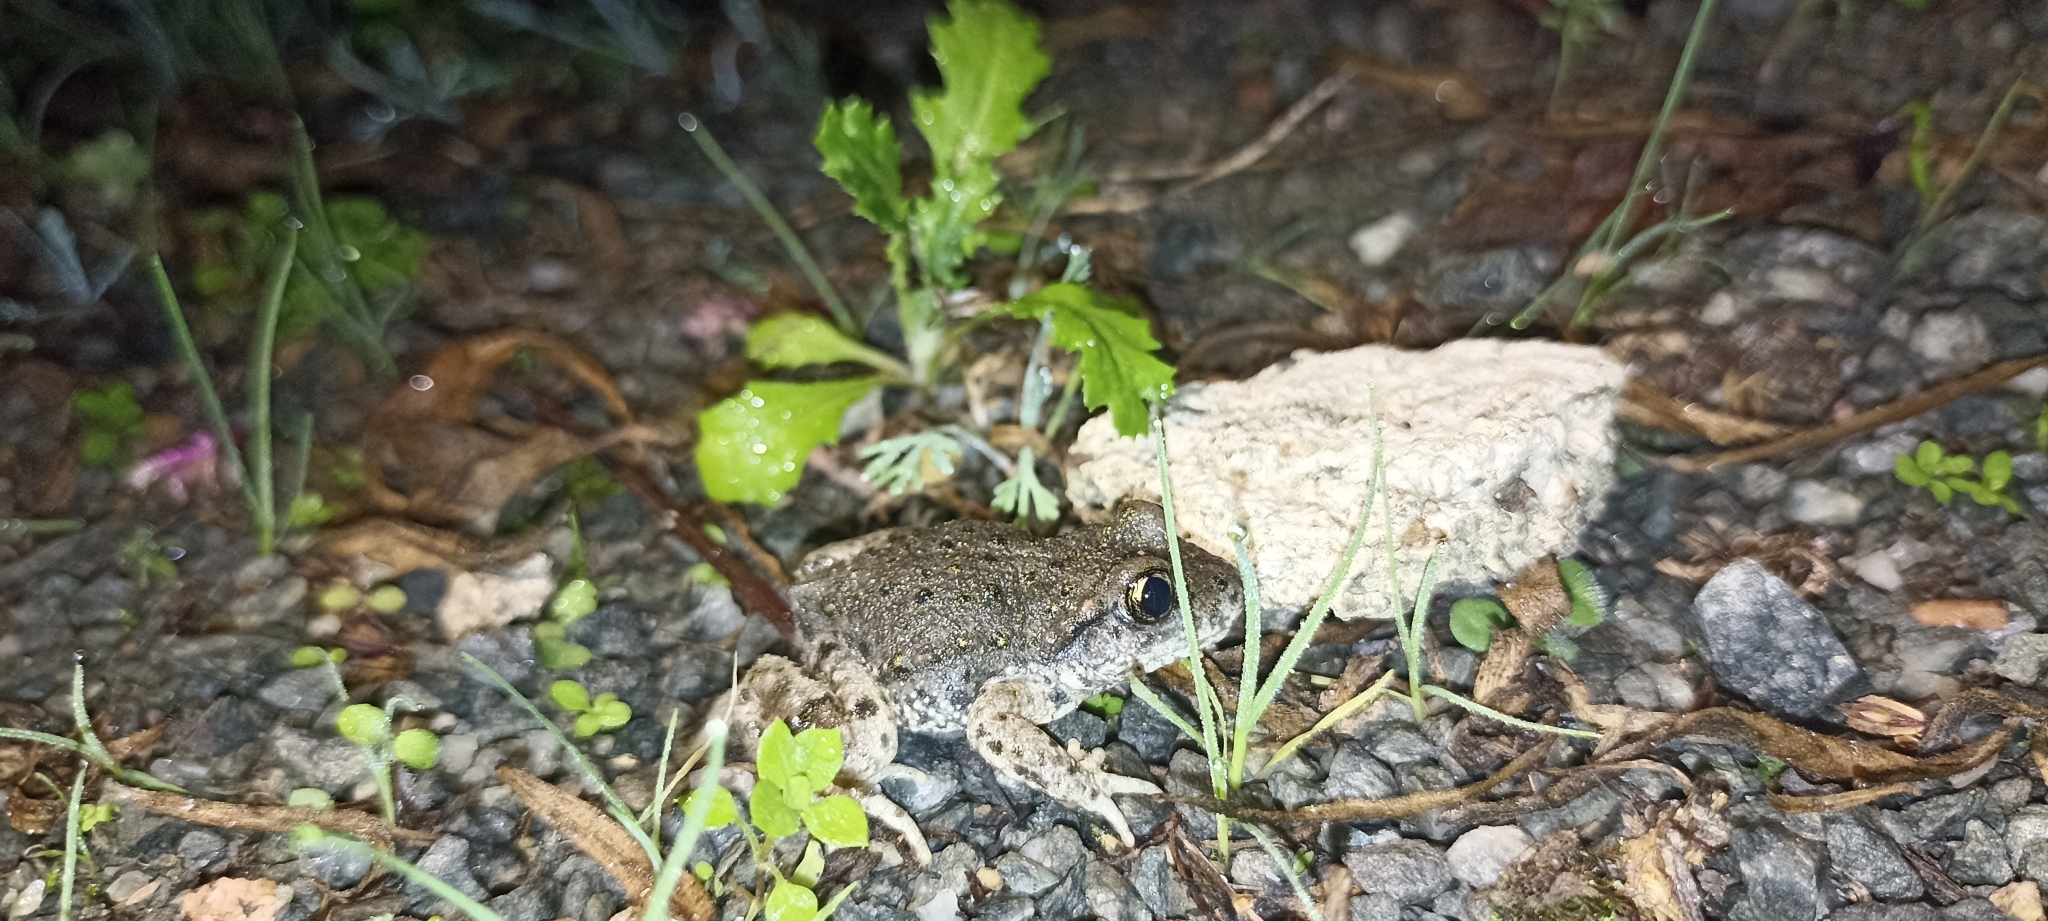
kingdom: Animalia
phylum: Chordata
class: Amphibia
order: Anura
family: Alytidae
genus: Alytes
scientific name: Alytes obstetricans
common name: Midwife toad
